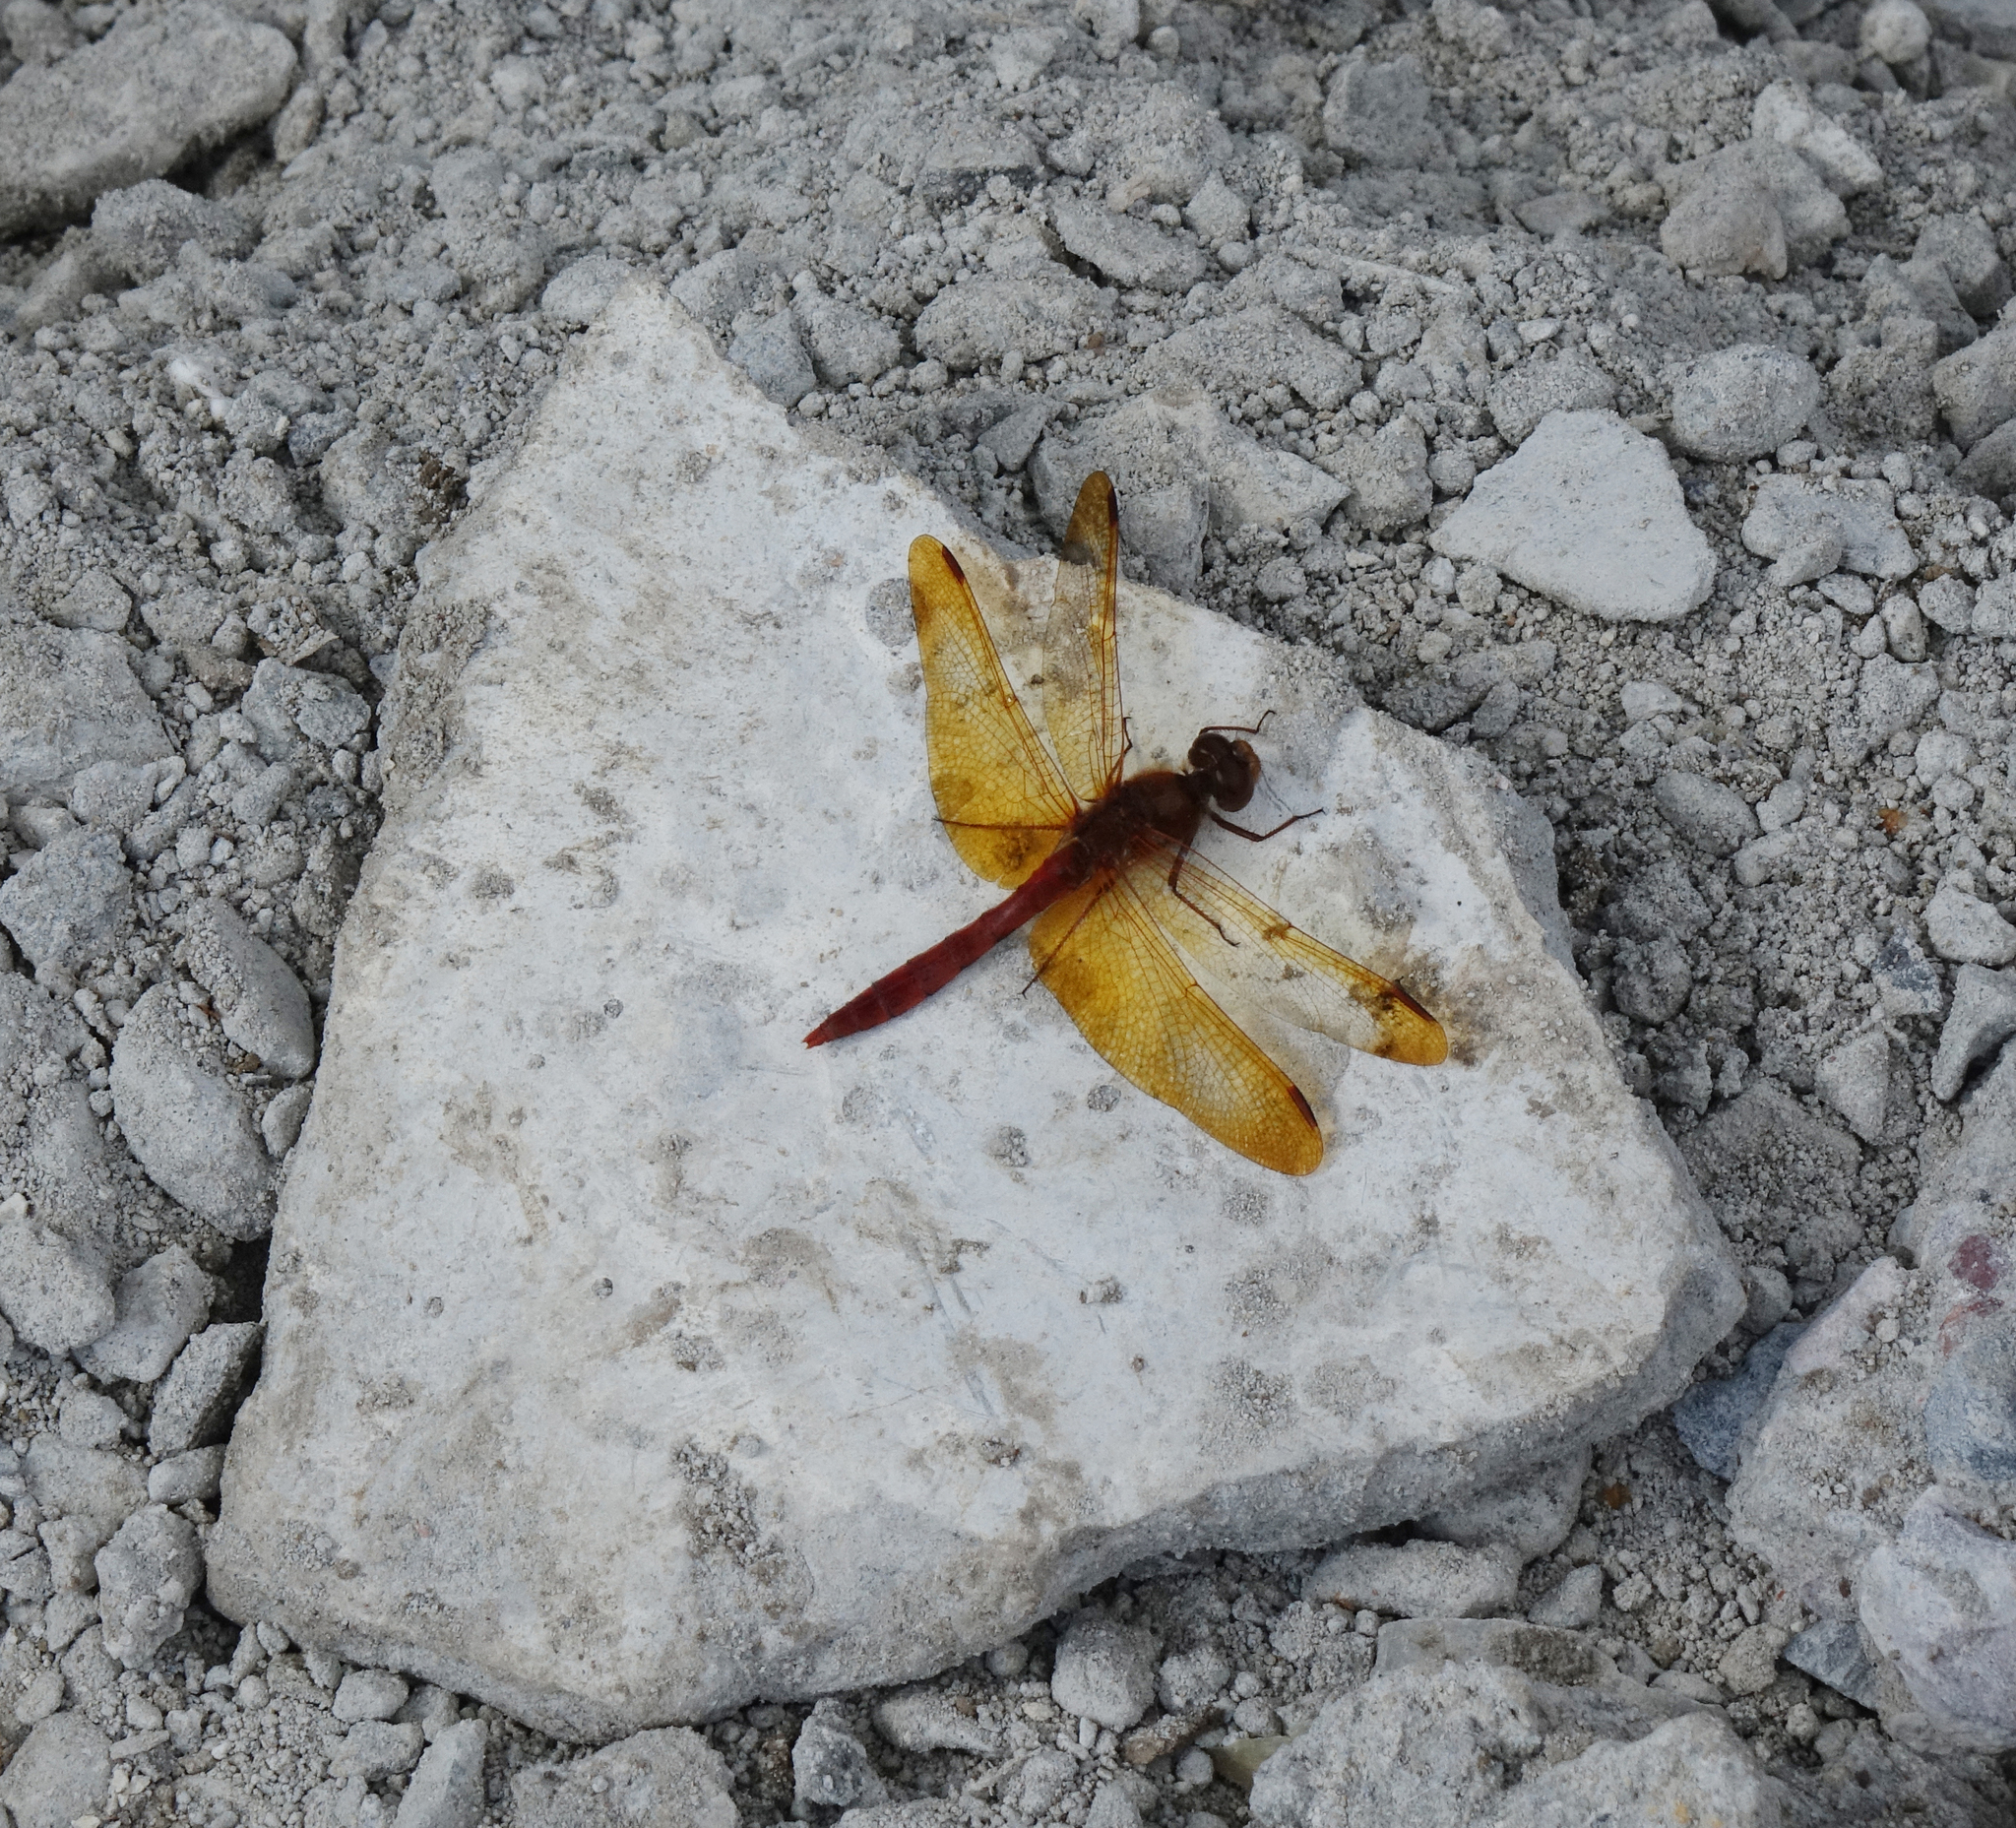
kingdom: Animalia
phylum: Arthropoda
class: Insecta
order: Odonata
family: Libellulidae
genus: Sympetrum
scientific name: Sympetrum croceolum
